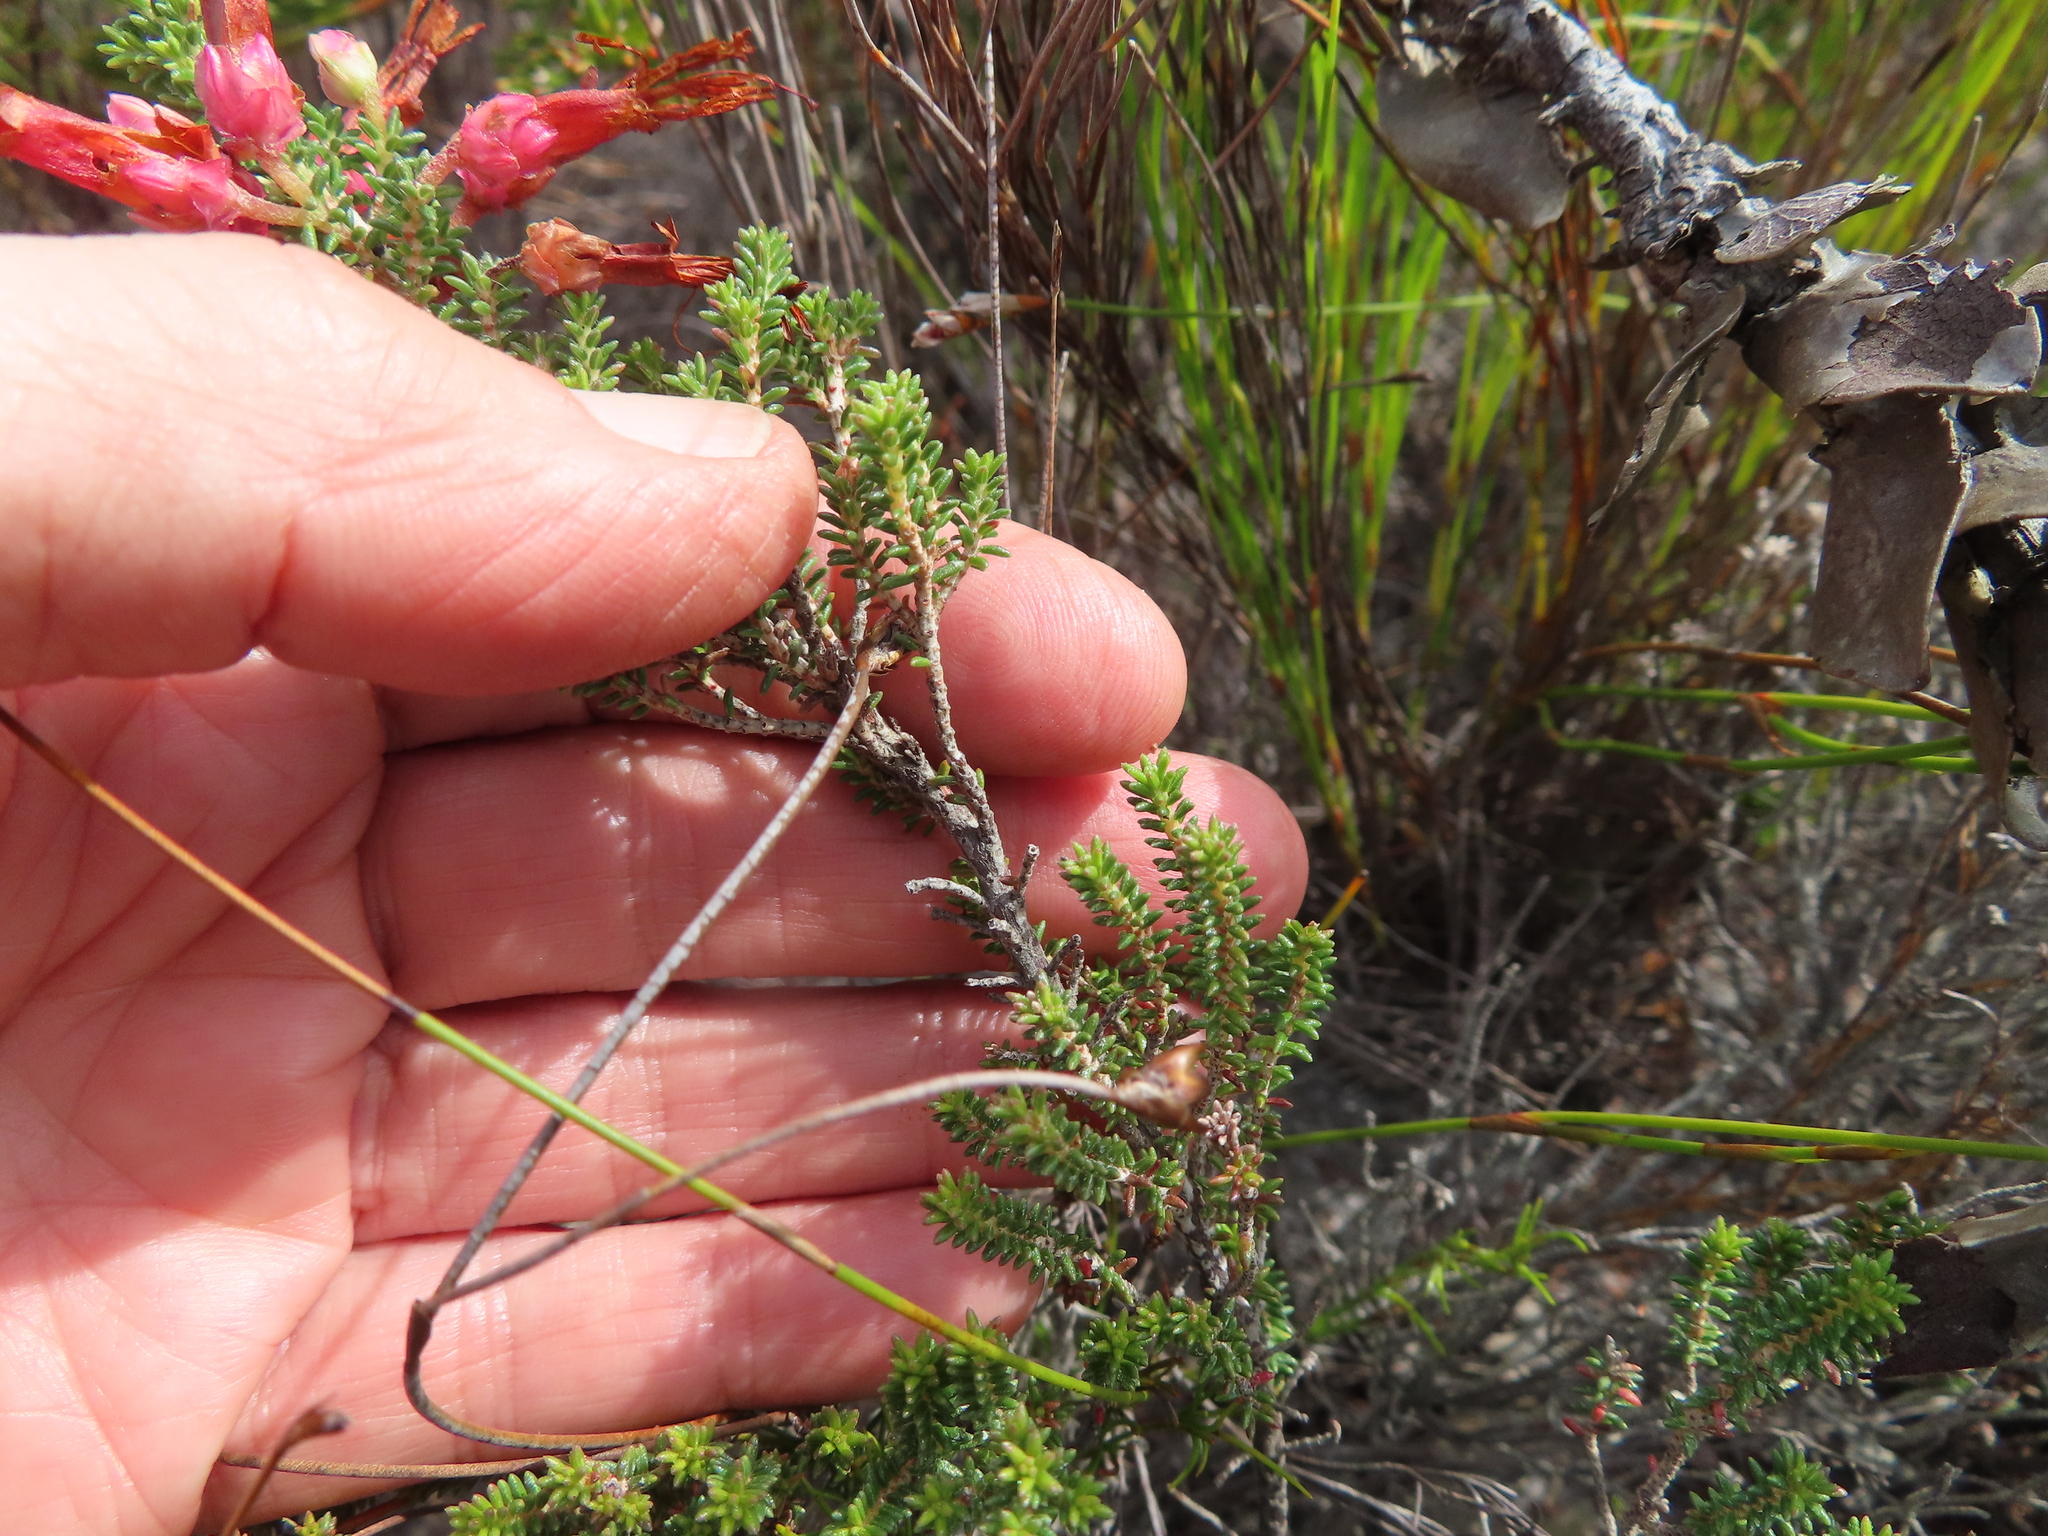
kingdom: Plantae
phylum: Tracheophyta
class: Magnoliopsida
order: Ericales
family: Ericaceae
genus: Erica
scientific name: Erica monadelphia
